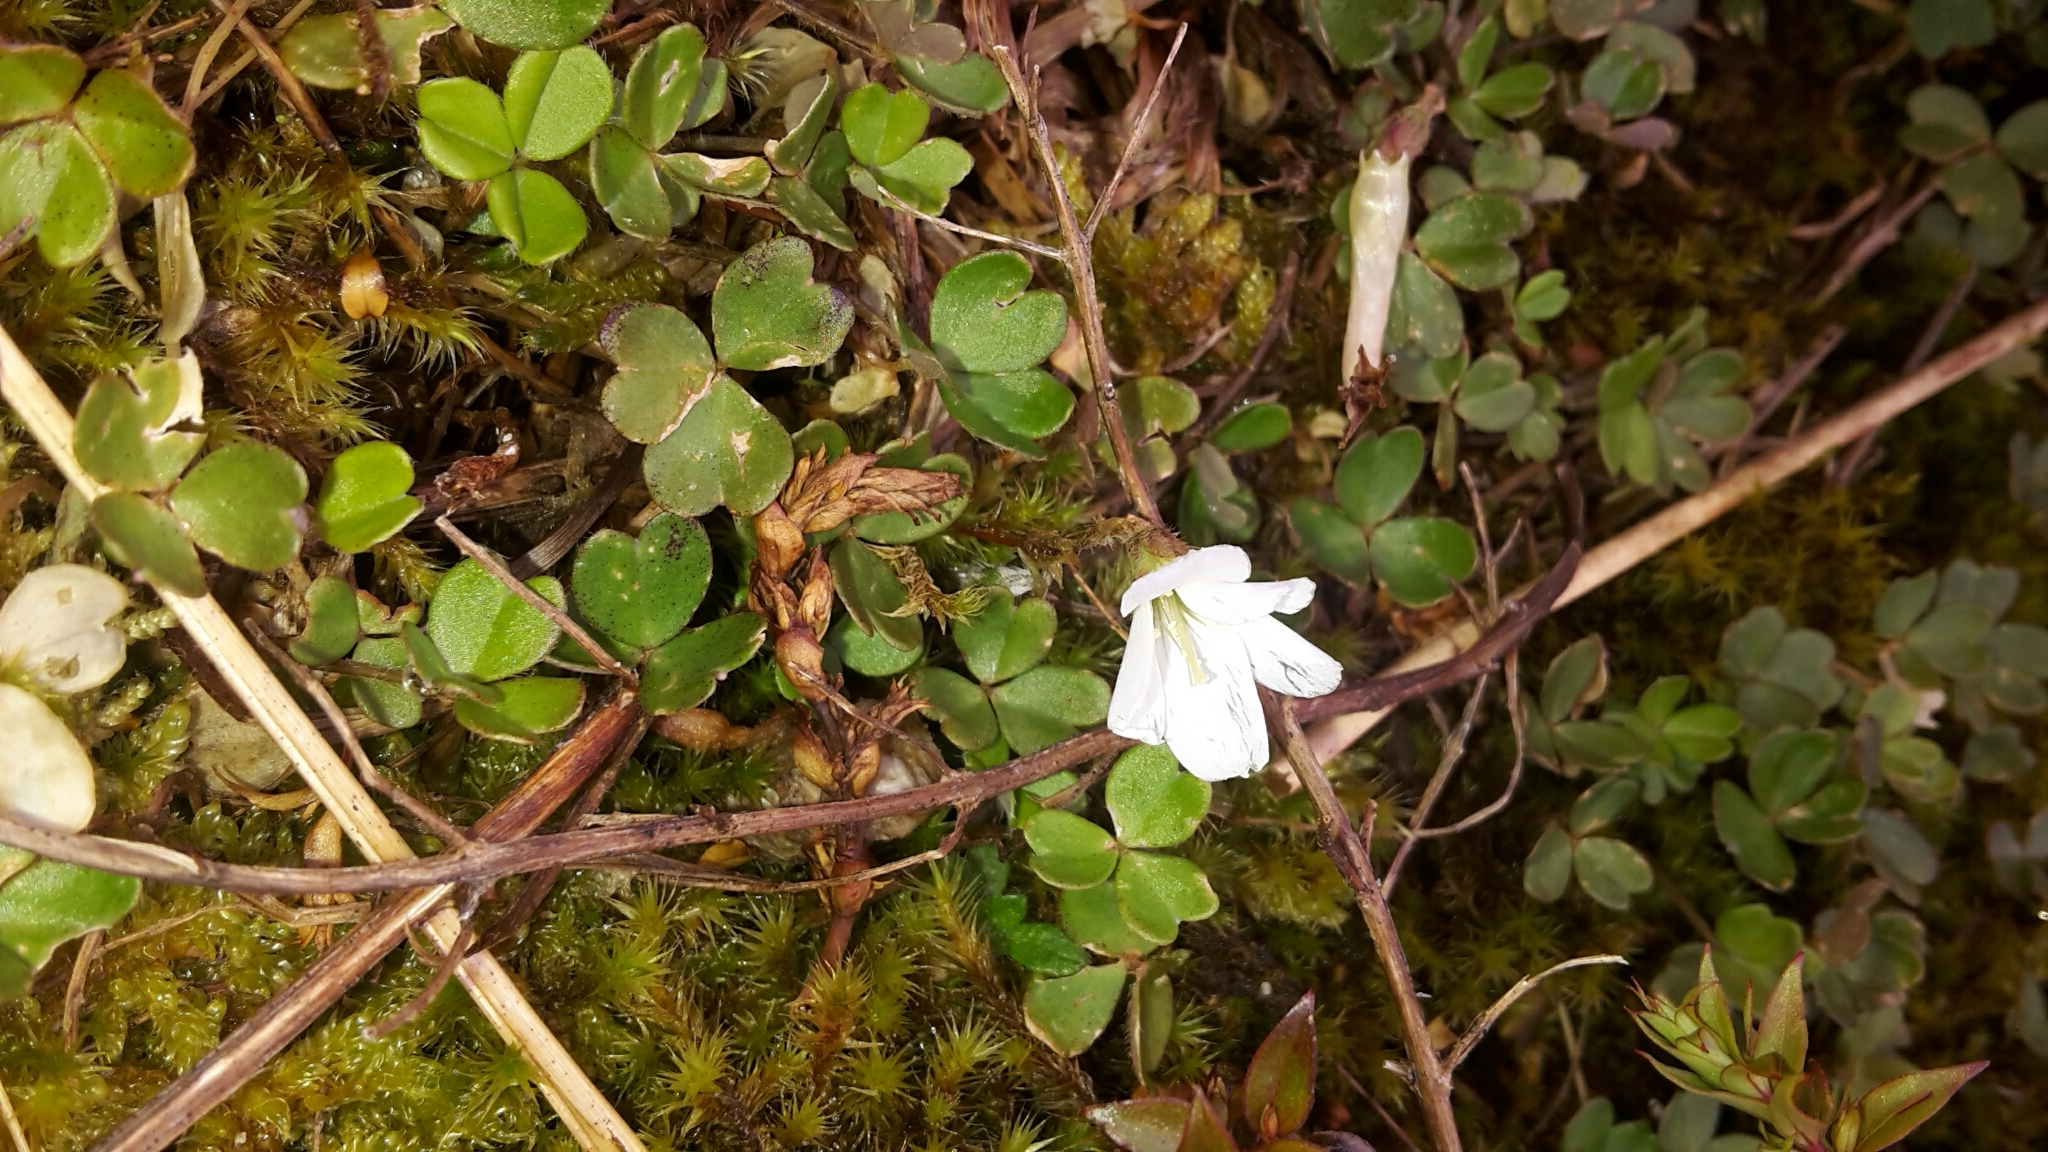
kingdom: Plantae
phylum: Tracheophyta
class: Magnoliopsida
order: Oxalidales
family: Oxalidaceae
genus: Oxalis
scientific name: Oxalis magellanica
